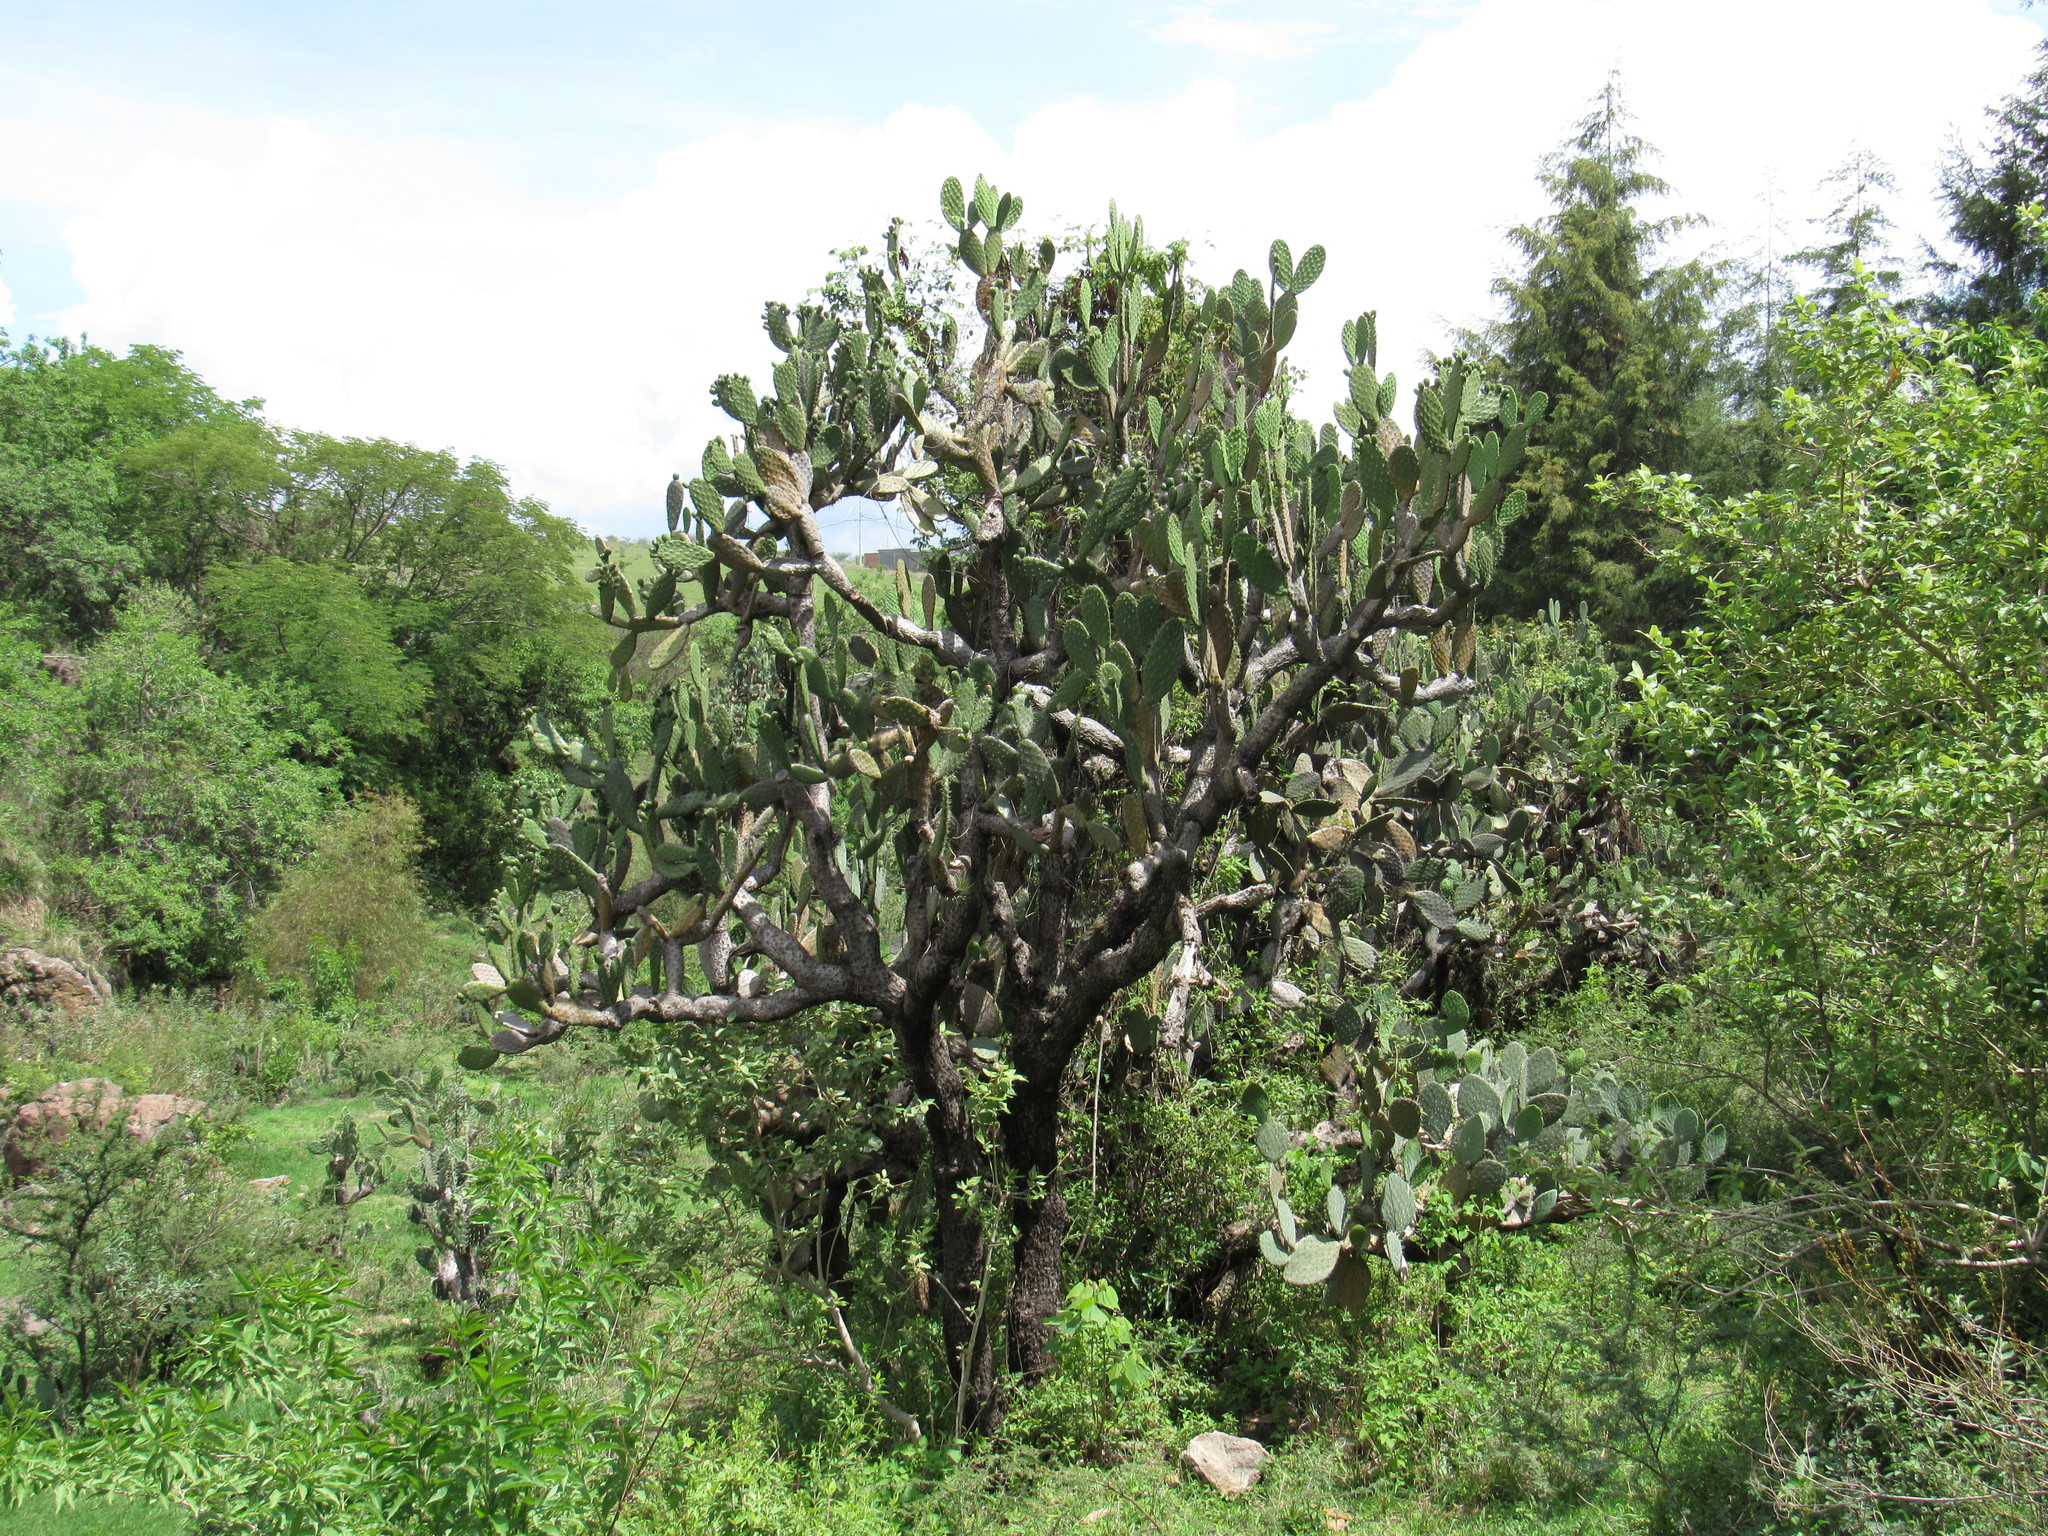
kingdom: Plantae
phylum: Tracheophyta
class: Magnoliopsida
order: Caryophyllales
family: Cactaceae
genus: Opuntia
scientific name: Opuntia tomentosa
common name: Woollyjoint pricklypear
